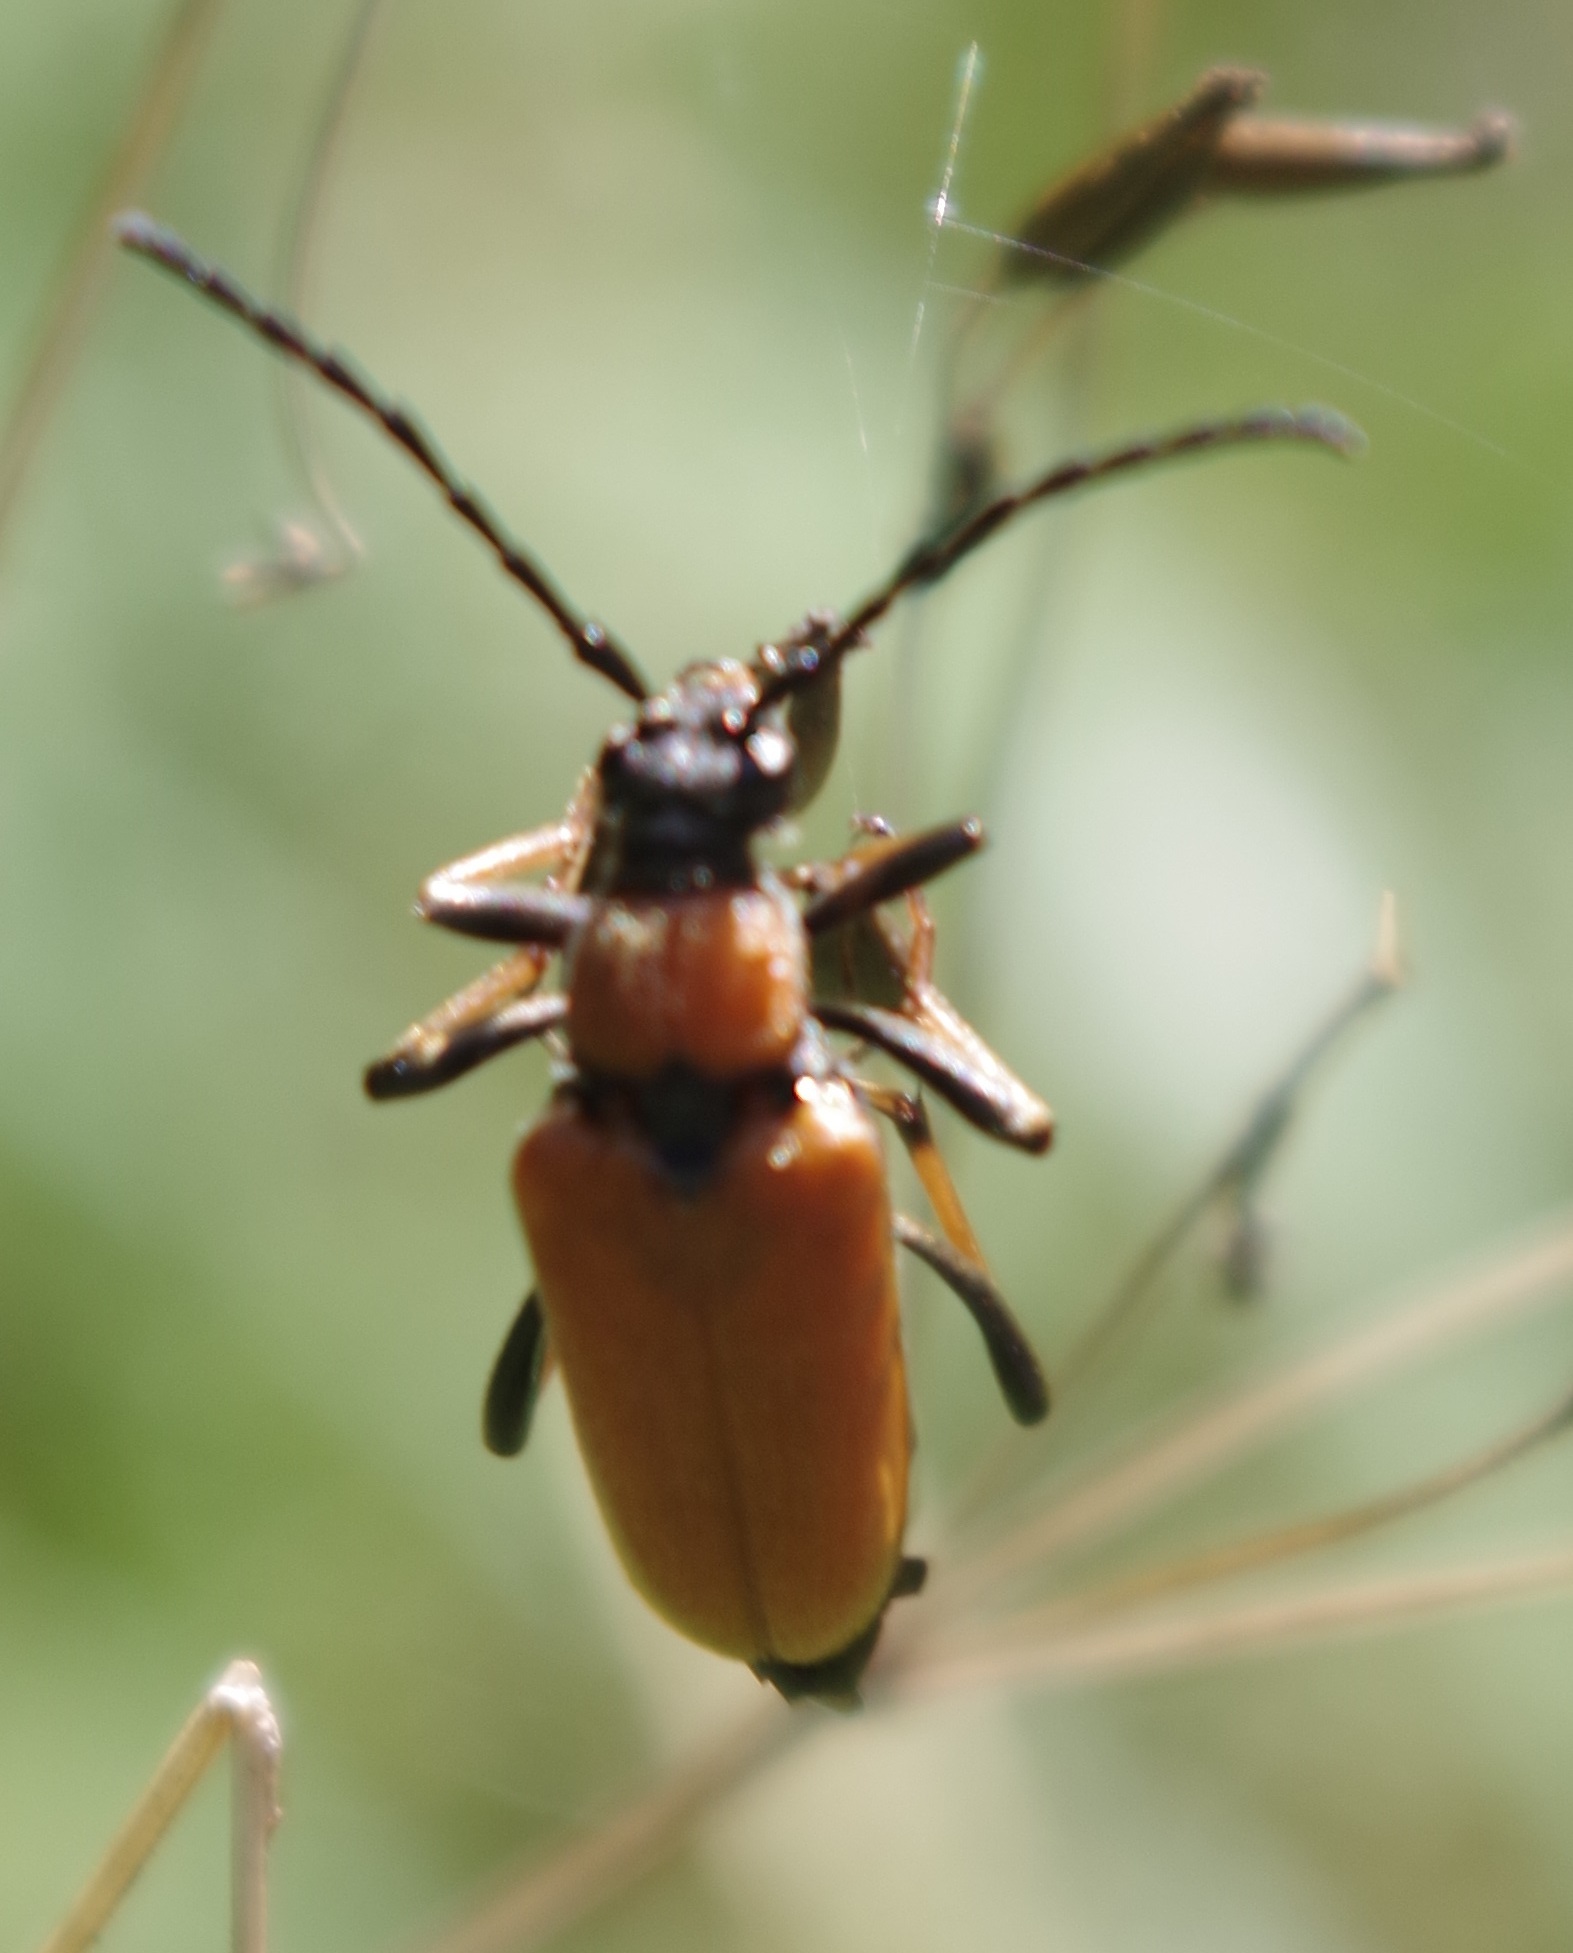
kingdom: Animalia
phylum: Arthropoda
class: Insecta
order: Coleoptera
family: Cerambycidae
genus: Stictoleptura
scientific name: Stictoleptura rubra
